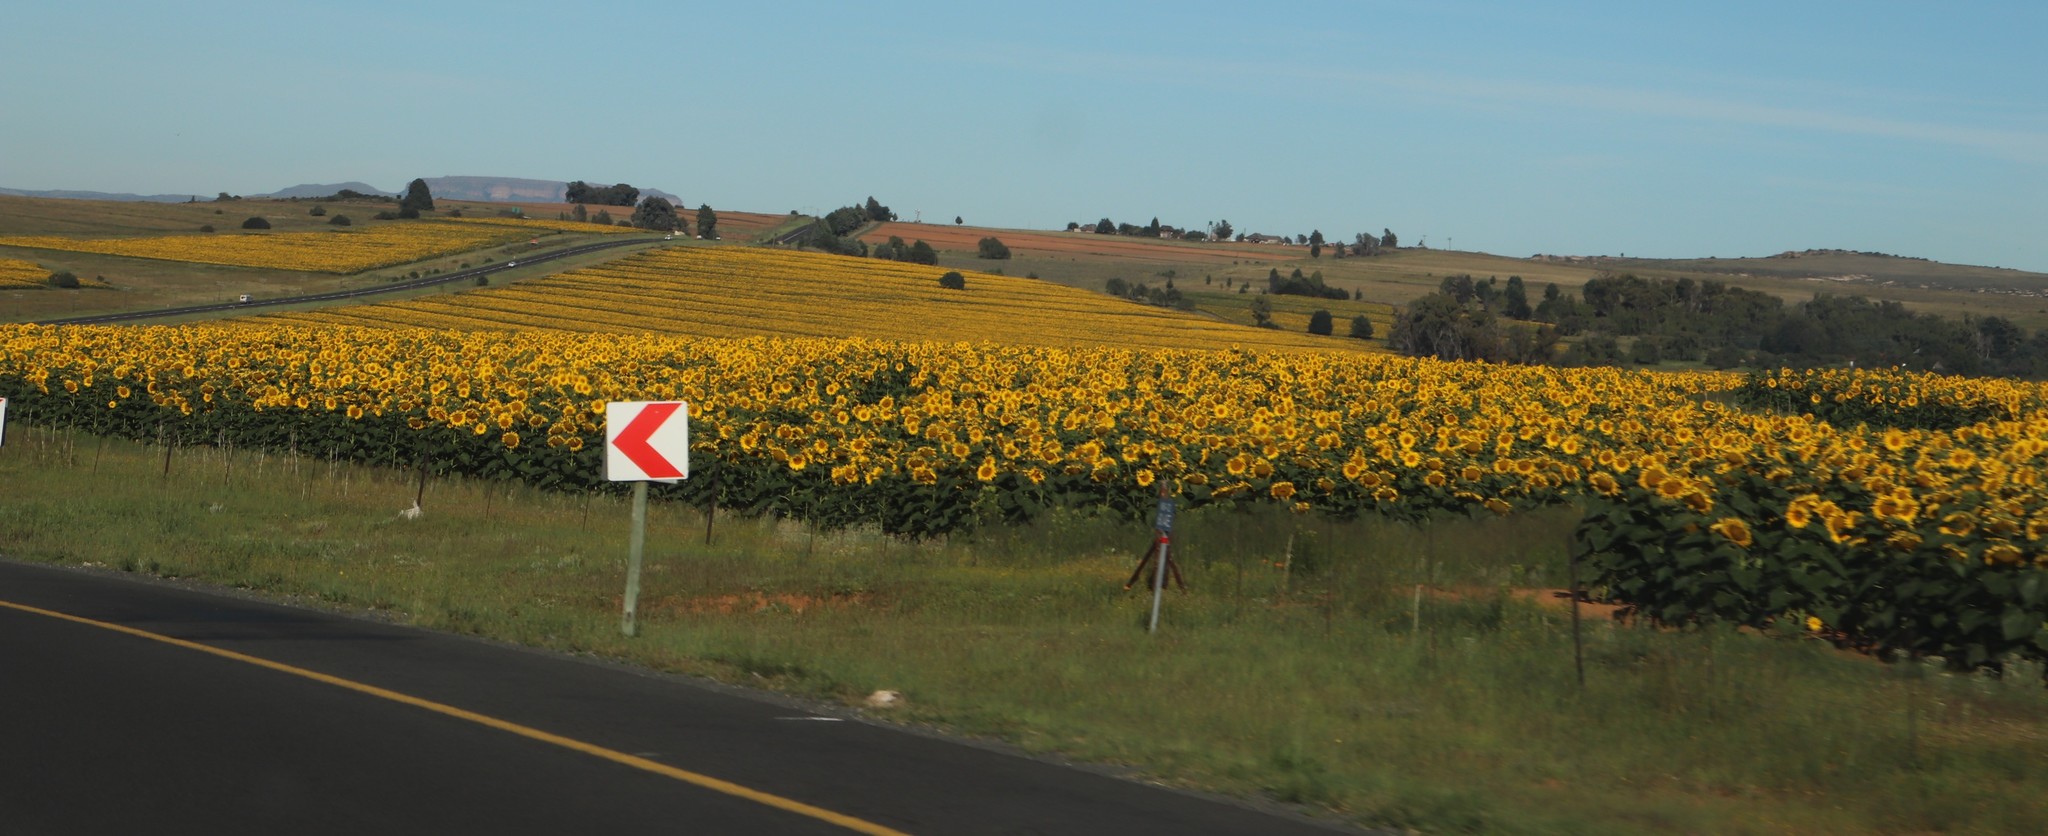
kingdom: Plantae
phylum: Tracheophyta
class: Magnoliopsida
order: Asterales
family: Asteraceae
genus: Helianthus
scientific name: Helianthus annuus
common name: Sunflower
